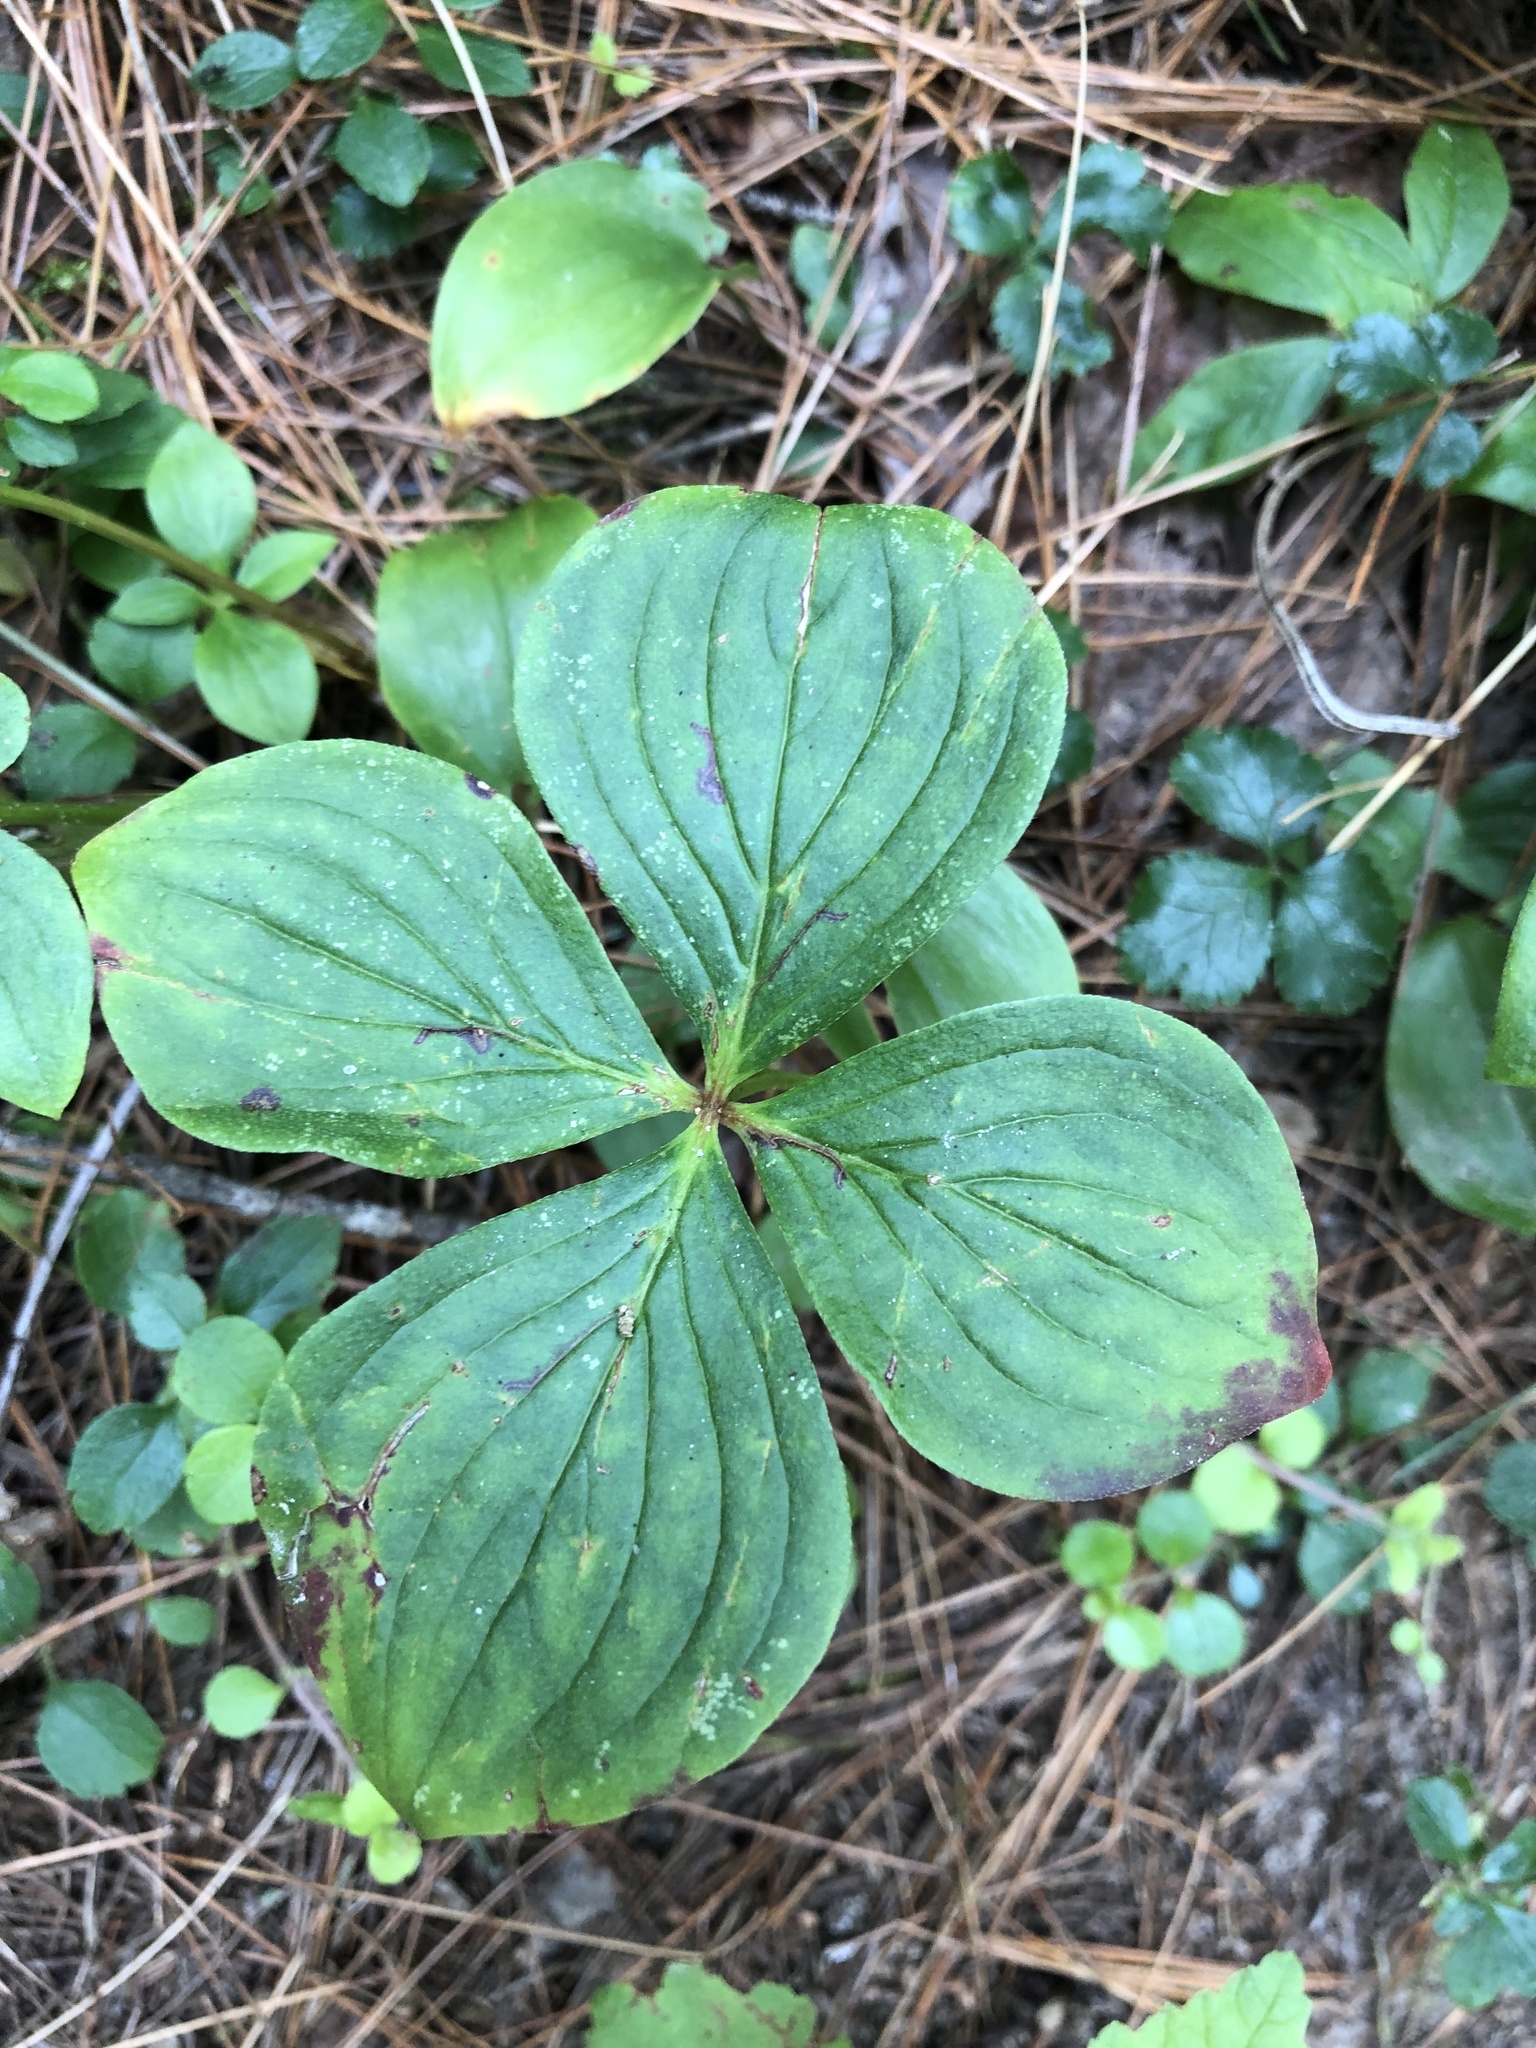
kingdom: Plantae
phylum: Tracheophyta
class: Magnoliopsida
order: Cornales
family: Cornaceae
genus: Cornus
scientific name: Cornus canadensis
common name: Creeping dogwood
